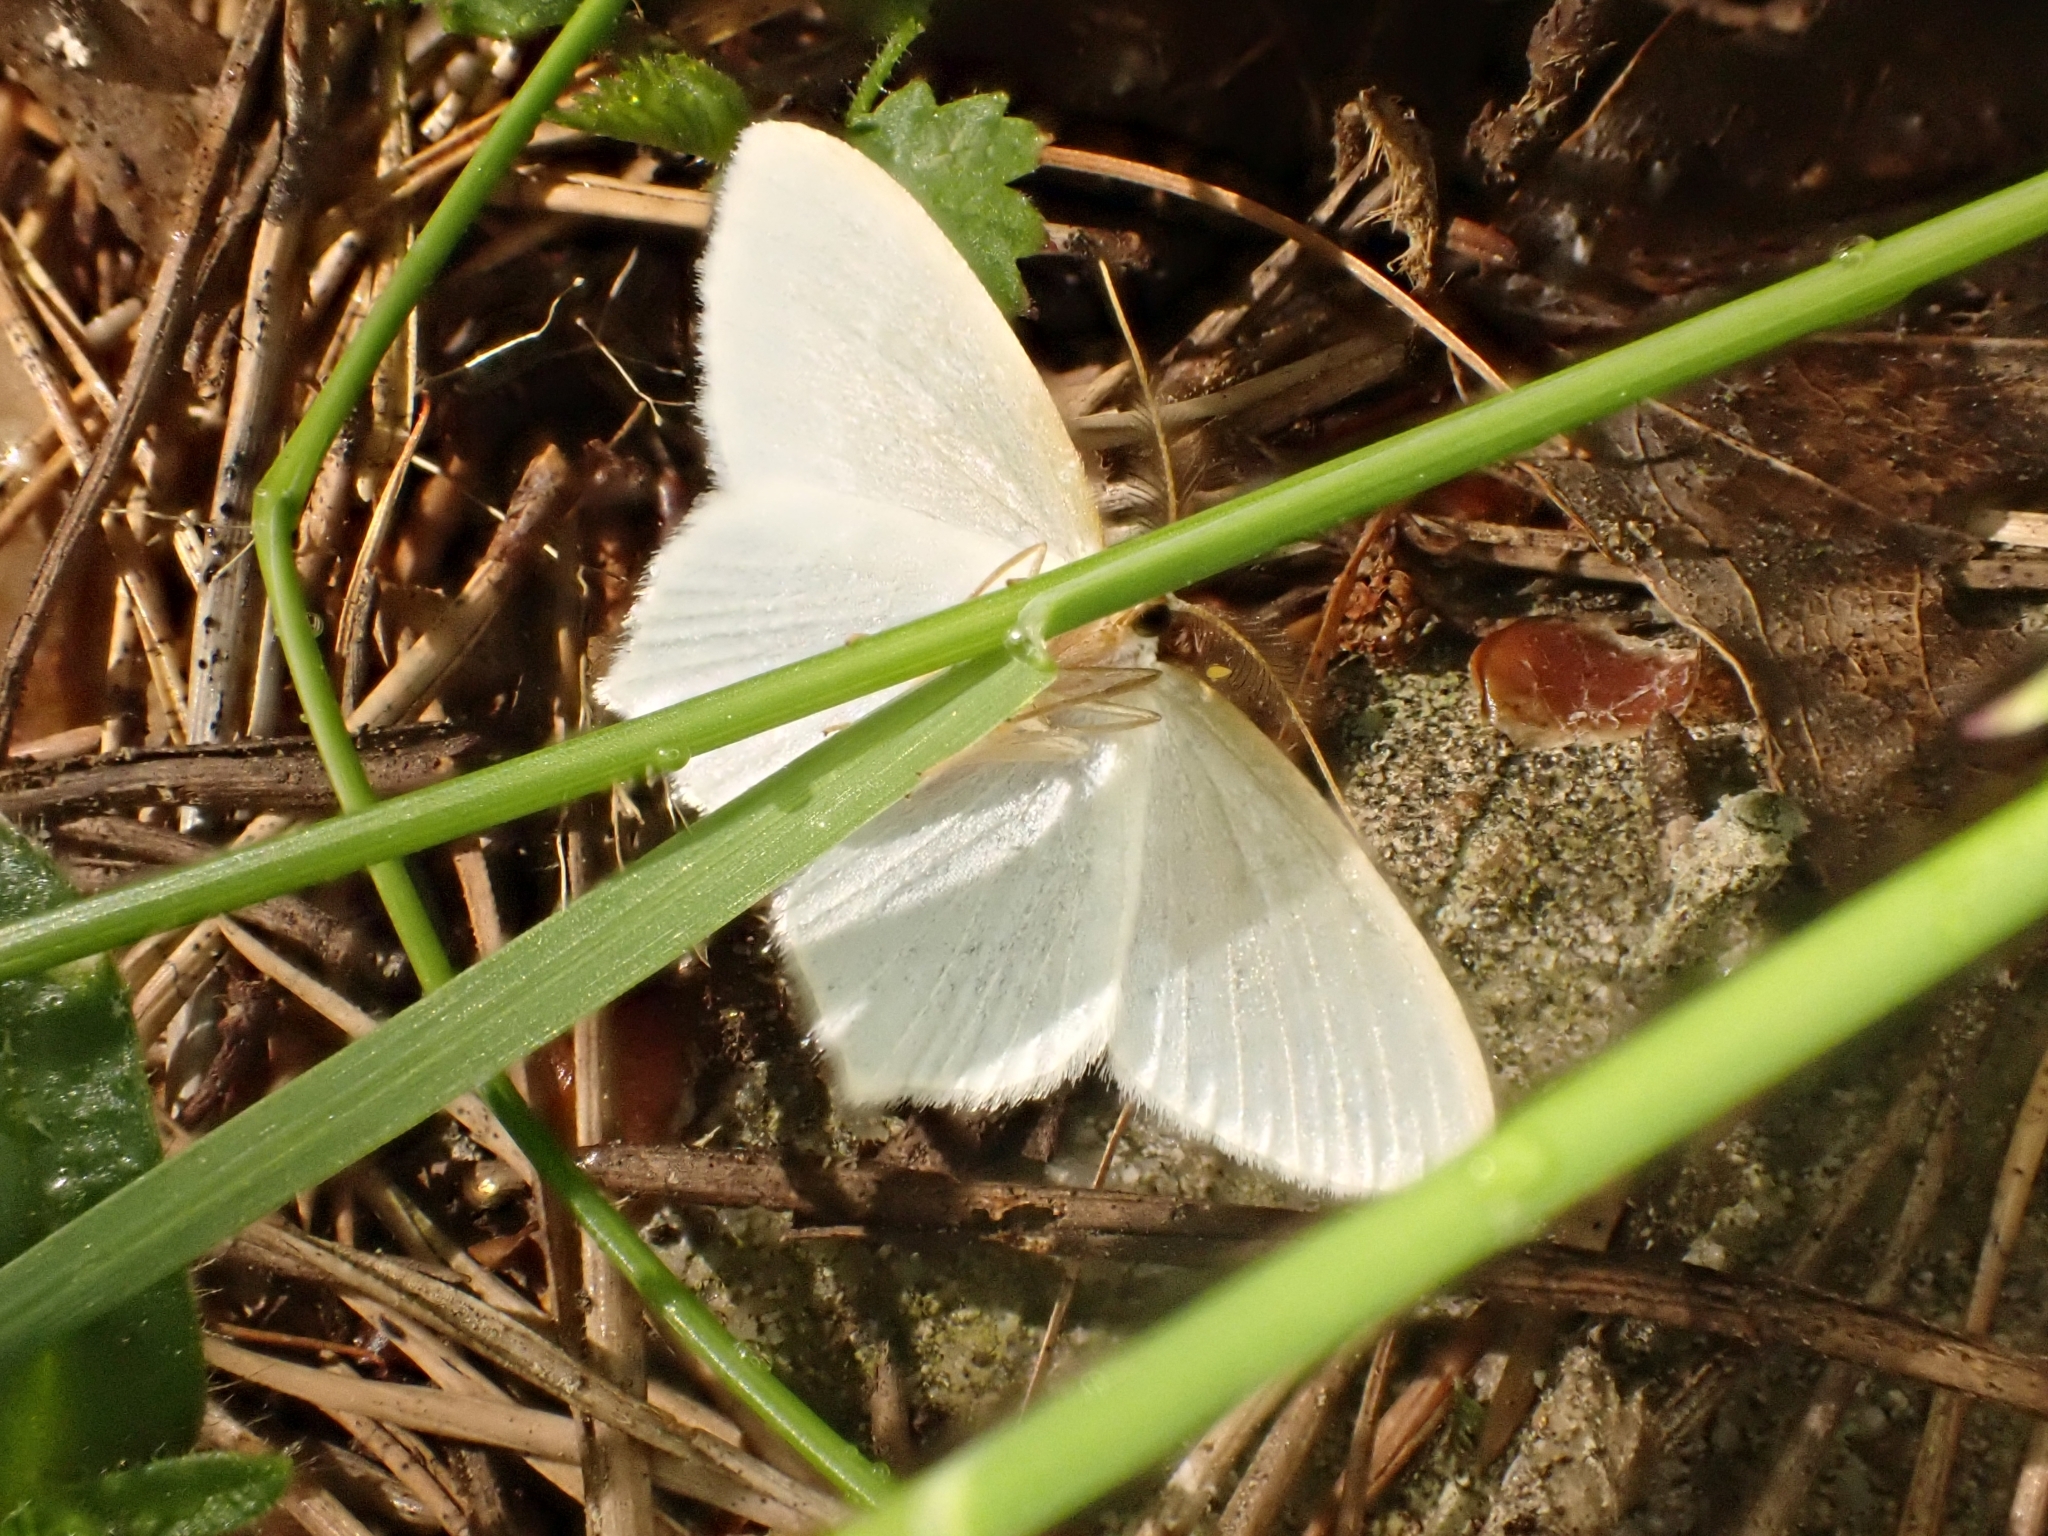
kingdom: Animalia
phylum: Arthropoda
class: Insecta
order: Lepidoptera
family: Geometridae
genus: Jodis
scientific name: Jodis putata
